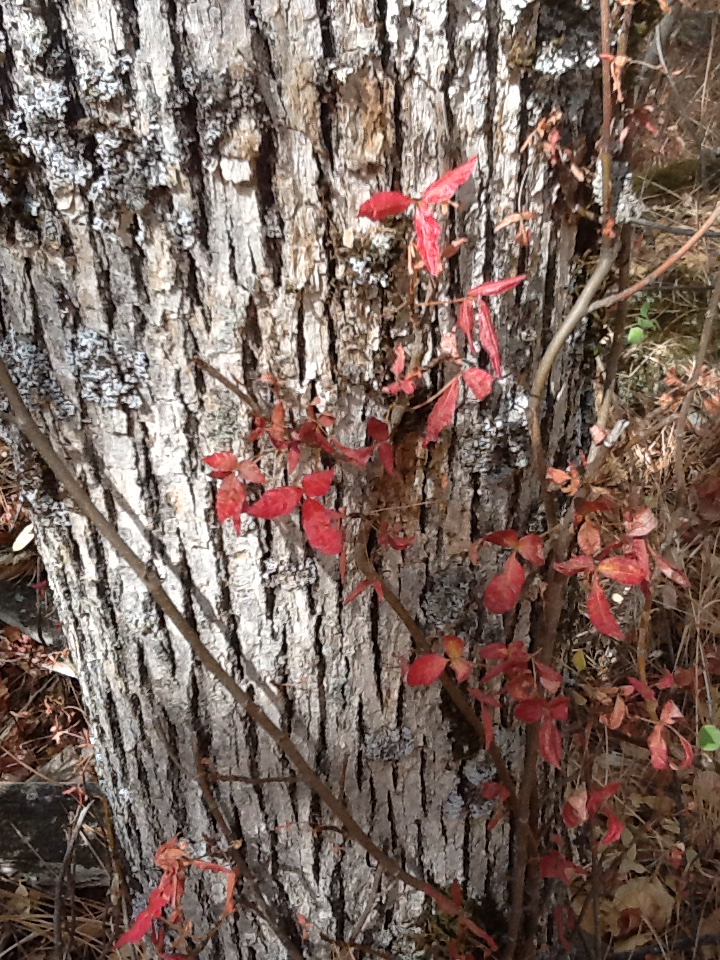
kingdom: Plantae
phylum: Tracheophyta
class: Magnoliopsida
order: Sapindales
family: Anacardiaceae
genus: Toxicodendron
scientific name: Toxicodendron diversilobum
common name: Pacific poison-oak
